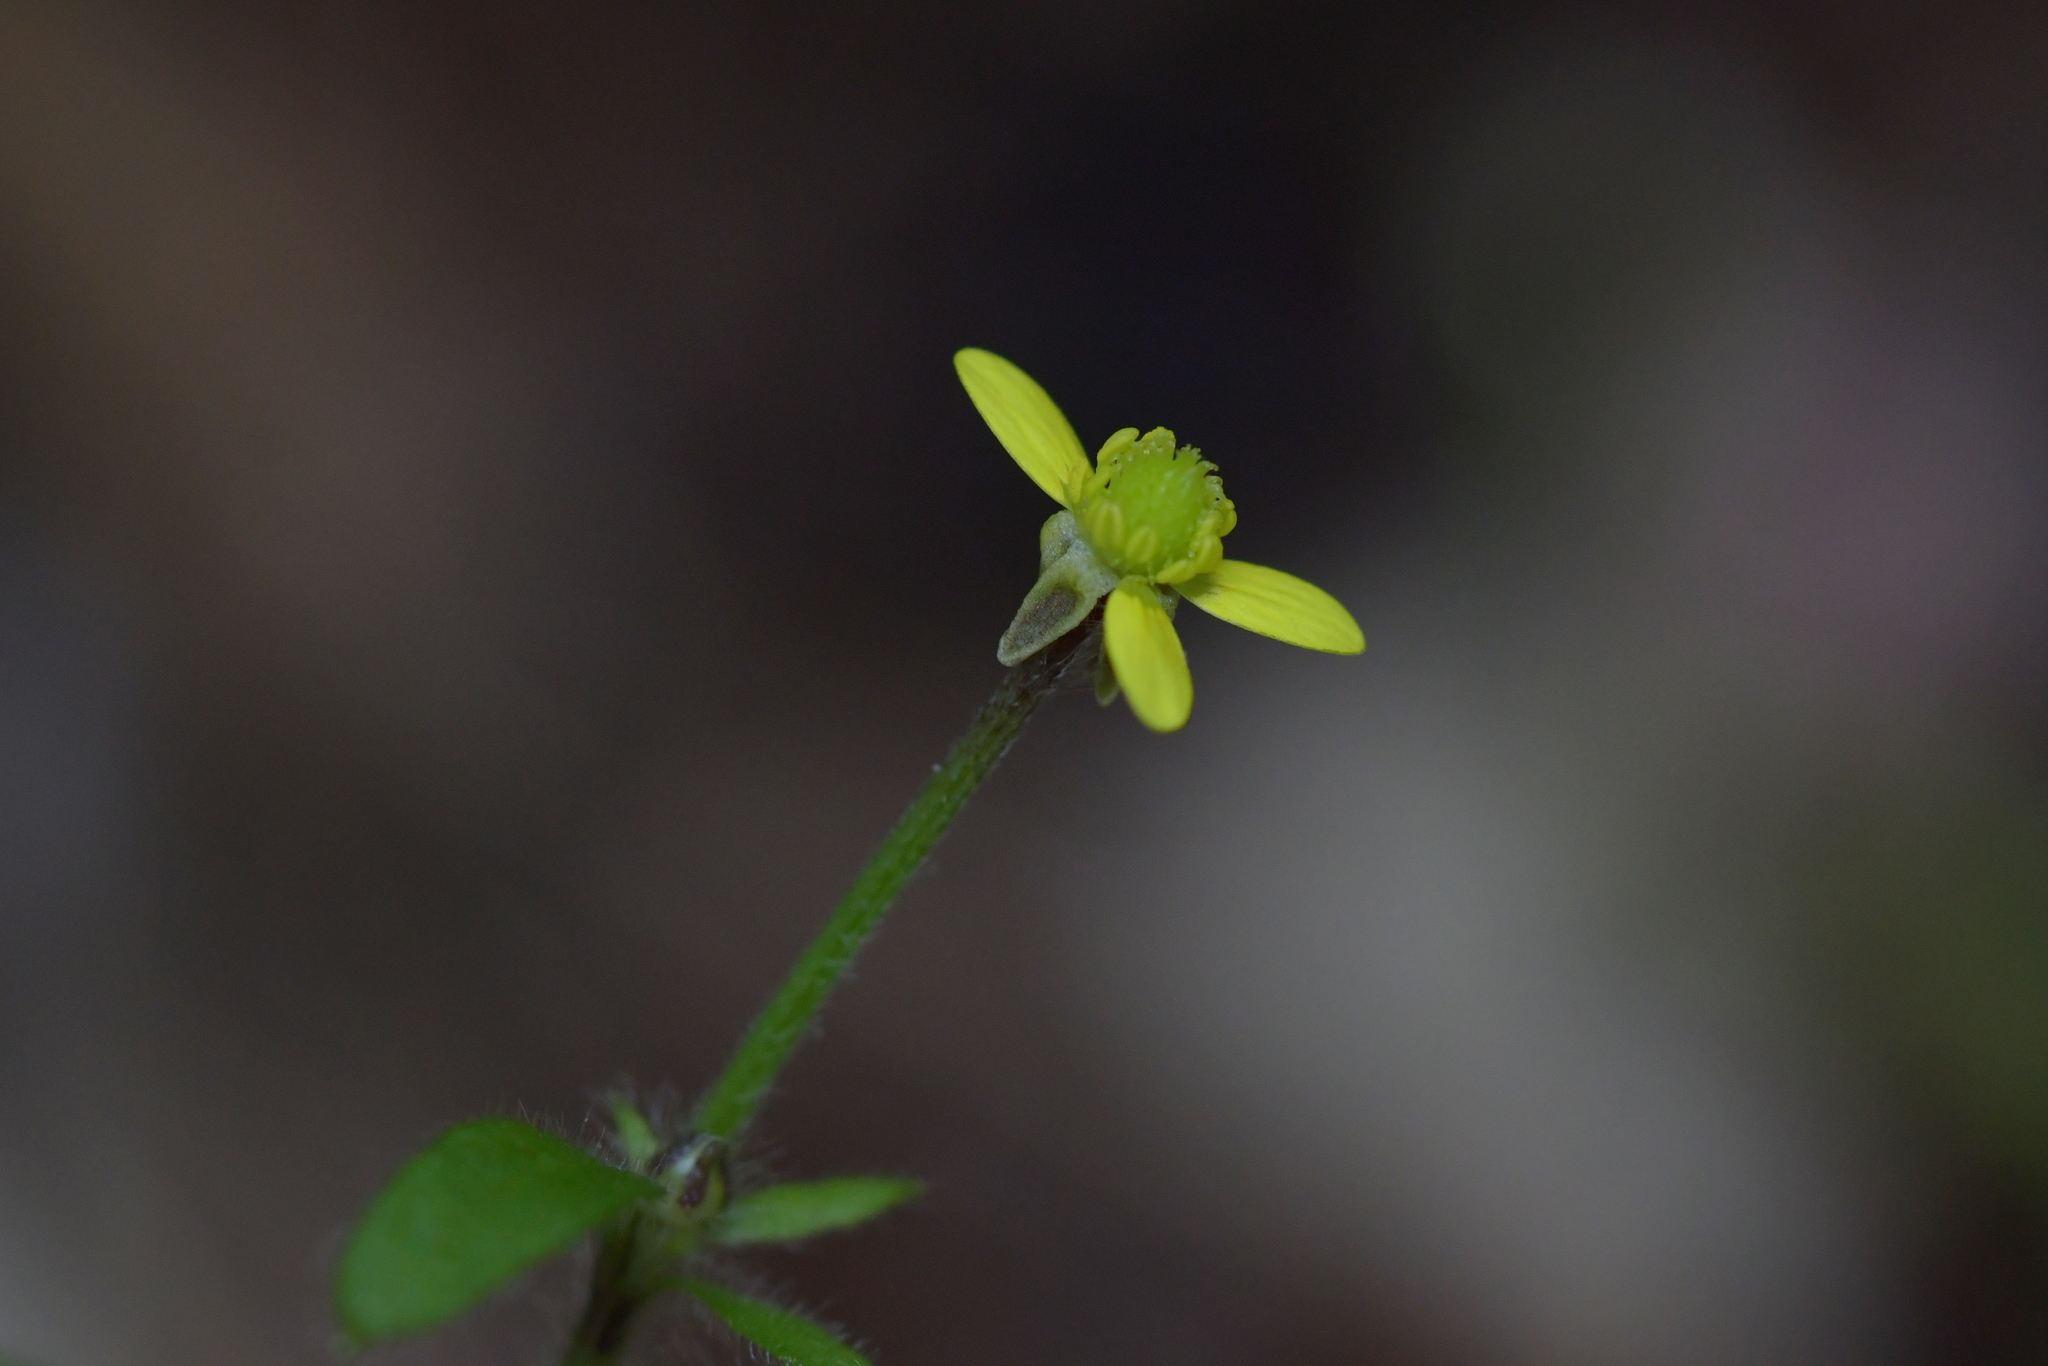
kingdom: Plantae
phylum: Tracheophyta
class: Magnoliopsida
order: Ranunculales
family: Ranunculaceae
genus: Ranunculus
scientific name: Ranunculus reflexus
